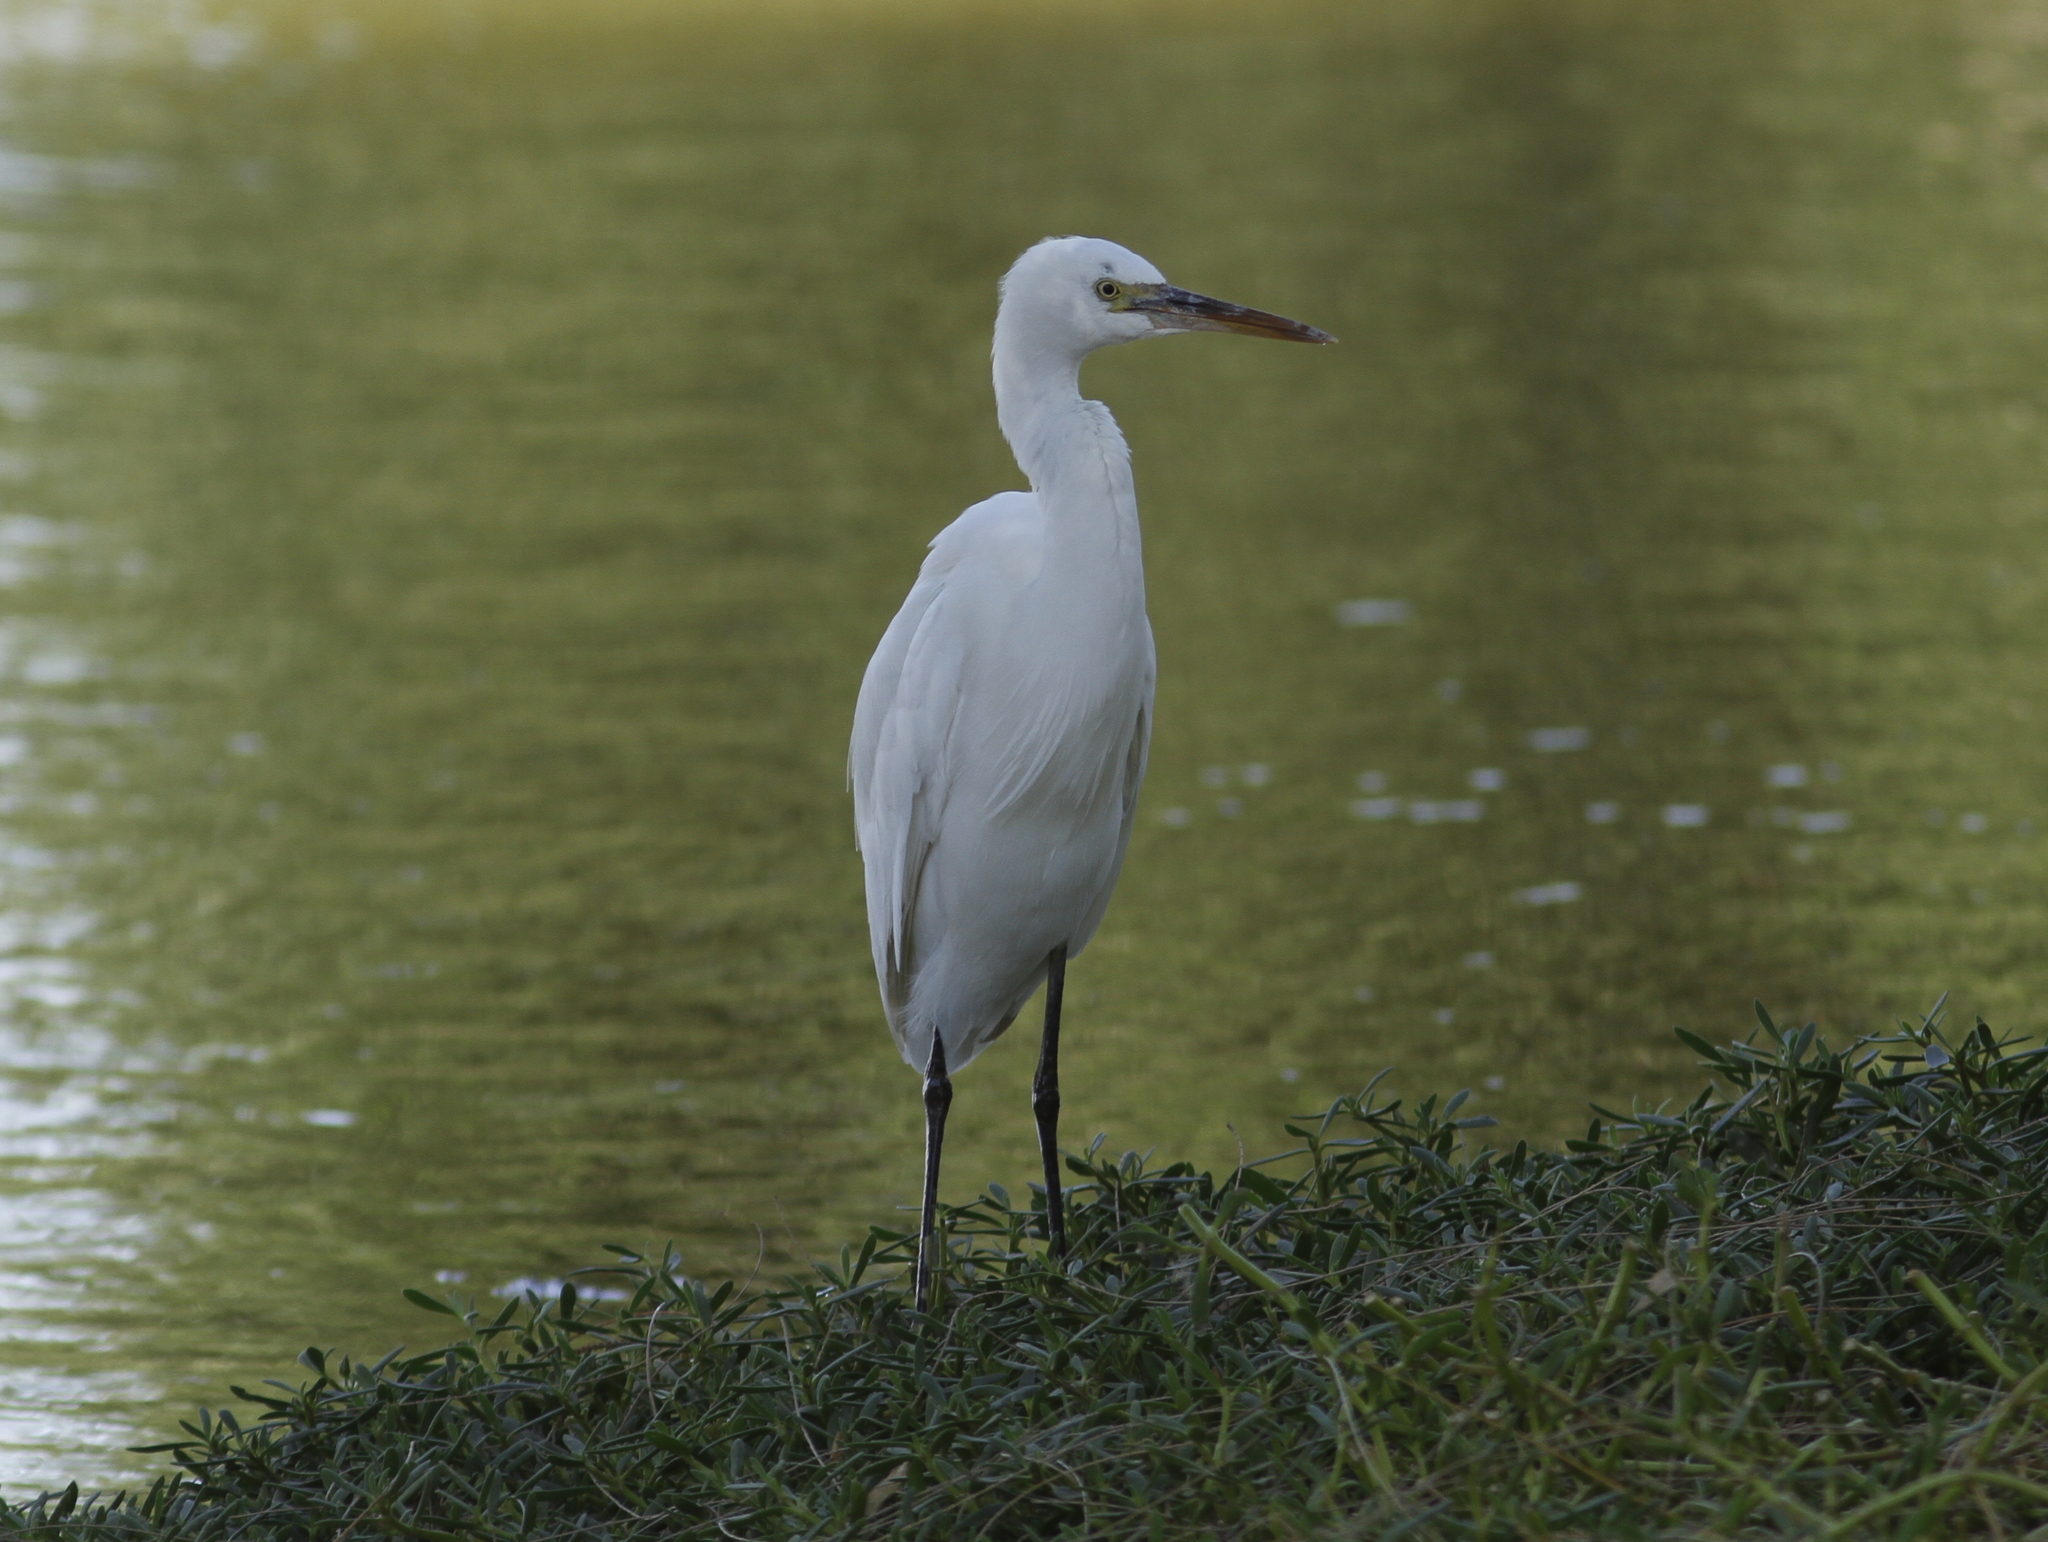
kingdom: Animalia
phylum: Chordata
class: Aves
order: Pelecaniformes
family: Ardeidae
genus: Egretta
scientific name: Egretta gularis
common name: Western reef-heron
